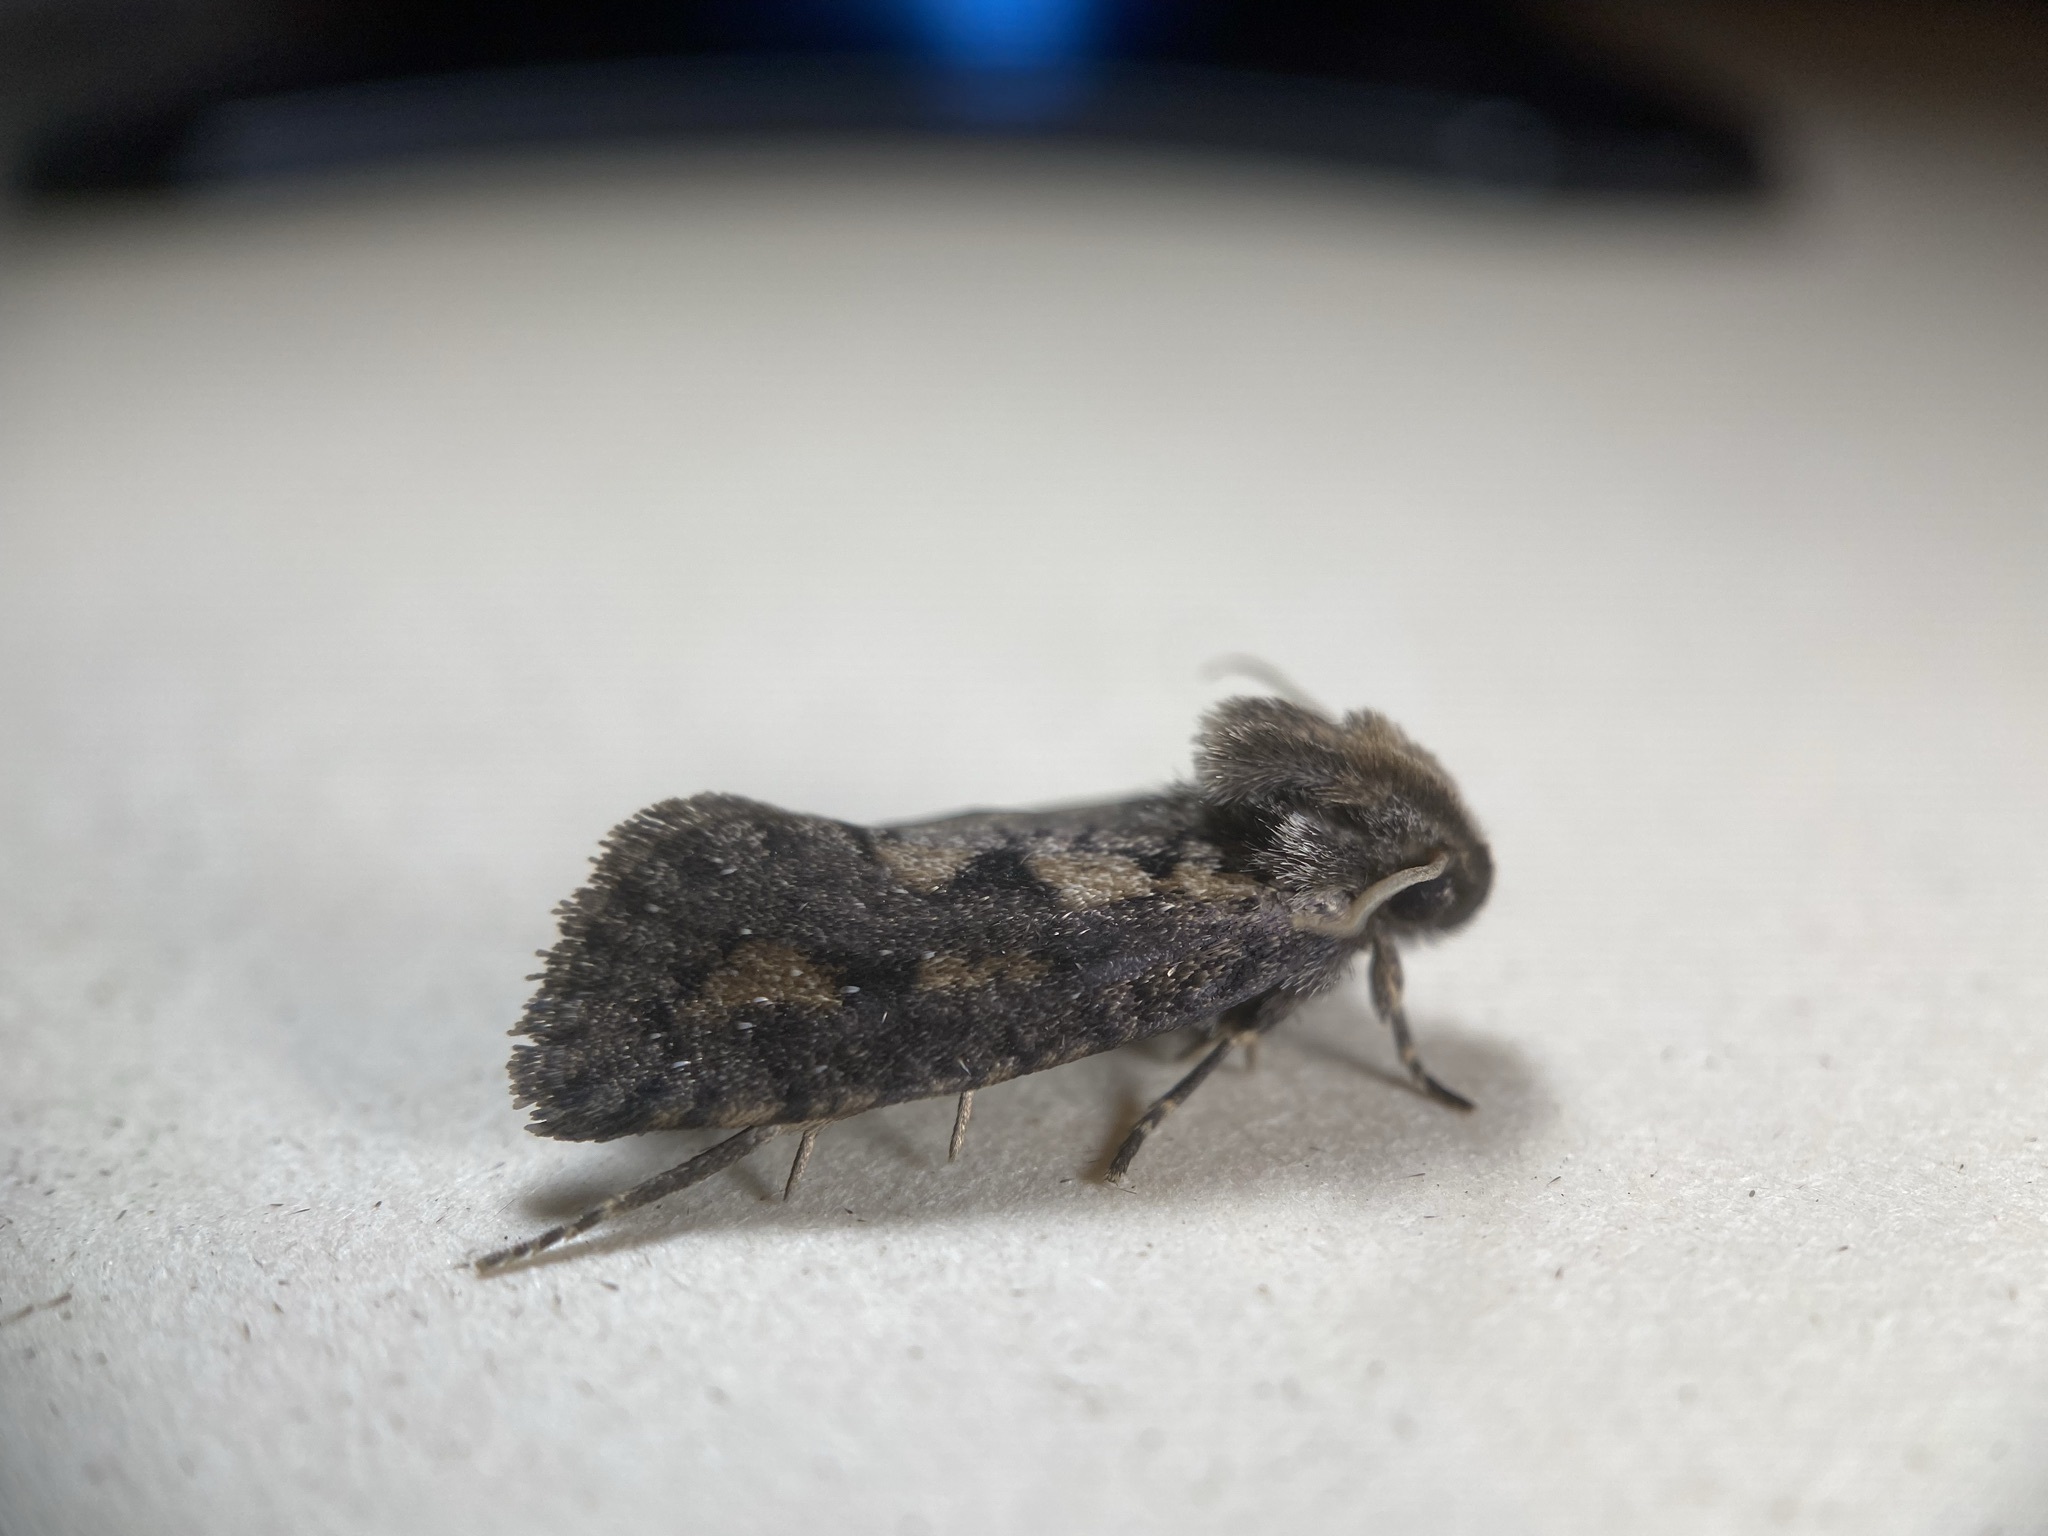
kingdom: Animalia
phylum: Arthropoda
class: Insecta
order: Lepidoptera
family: Tineidae
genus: Acrolophus
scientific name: Acrolophus popeanella
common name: Clemens' grass tubeworm moth
